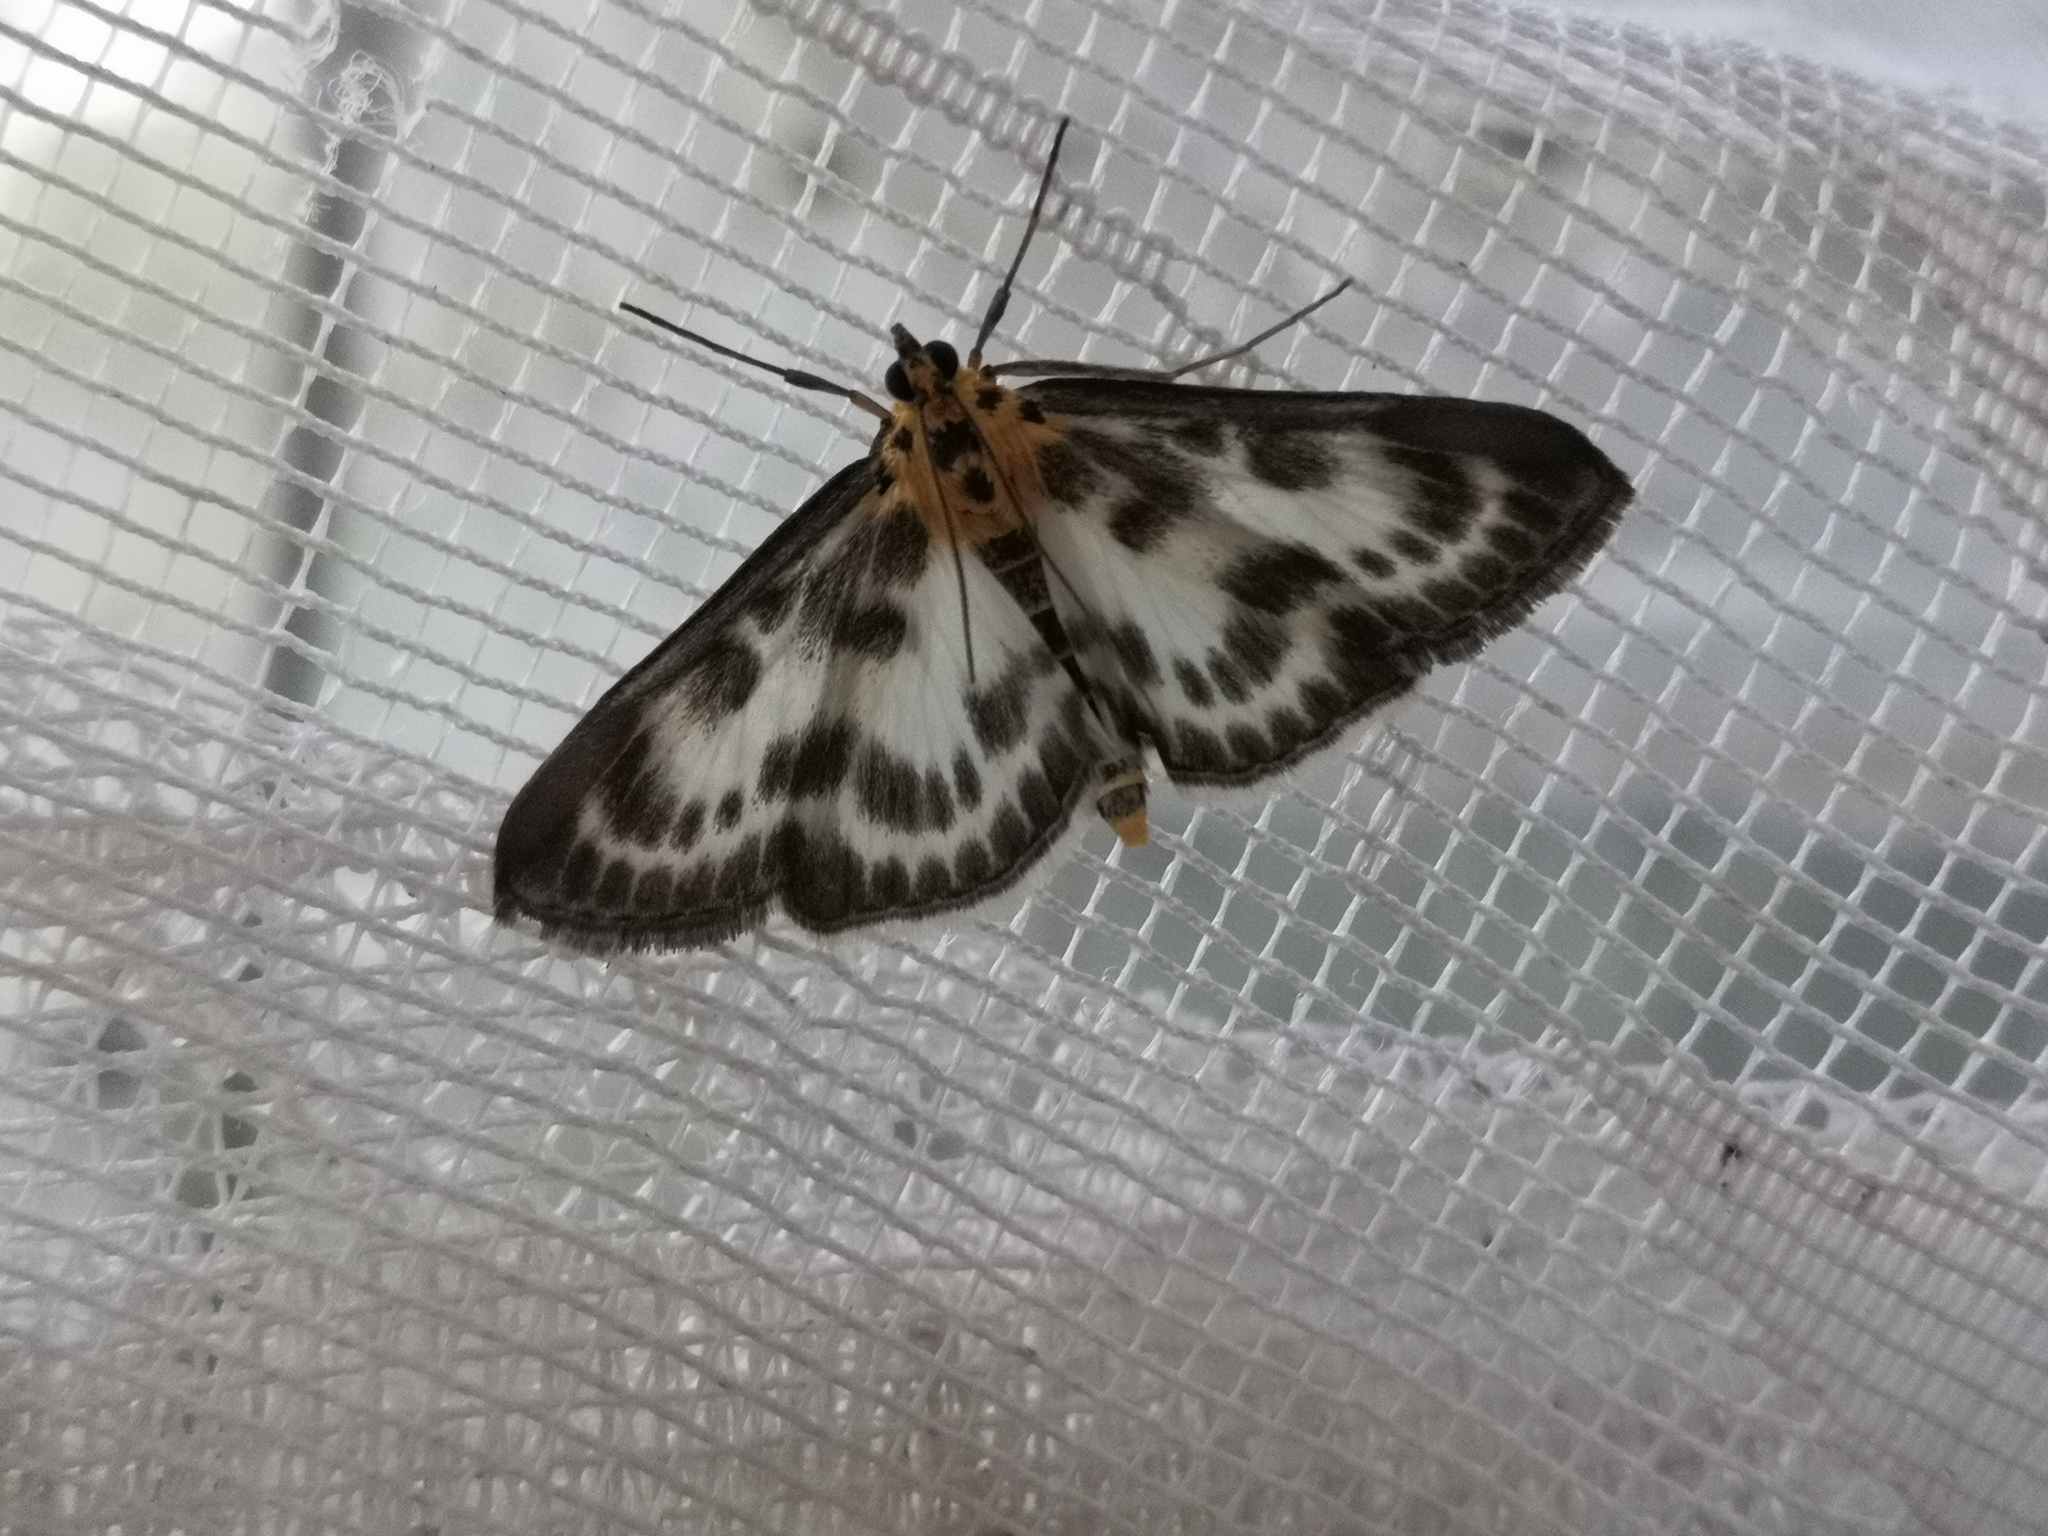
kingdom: Animalia
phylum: Arthropoda
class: Insecta
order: Lepidoptera
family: Crambidae
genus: Anania
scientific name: Anania hortulata
